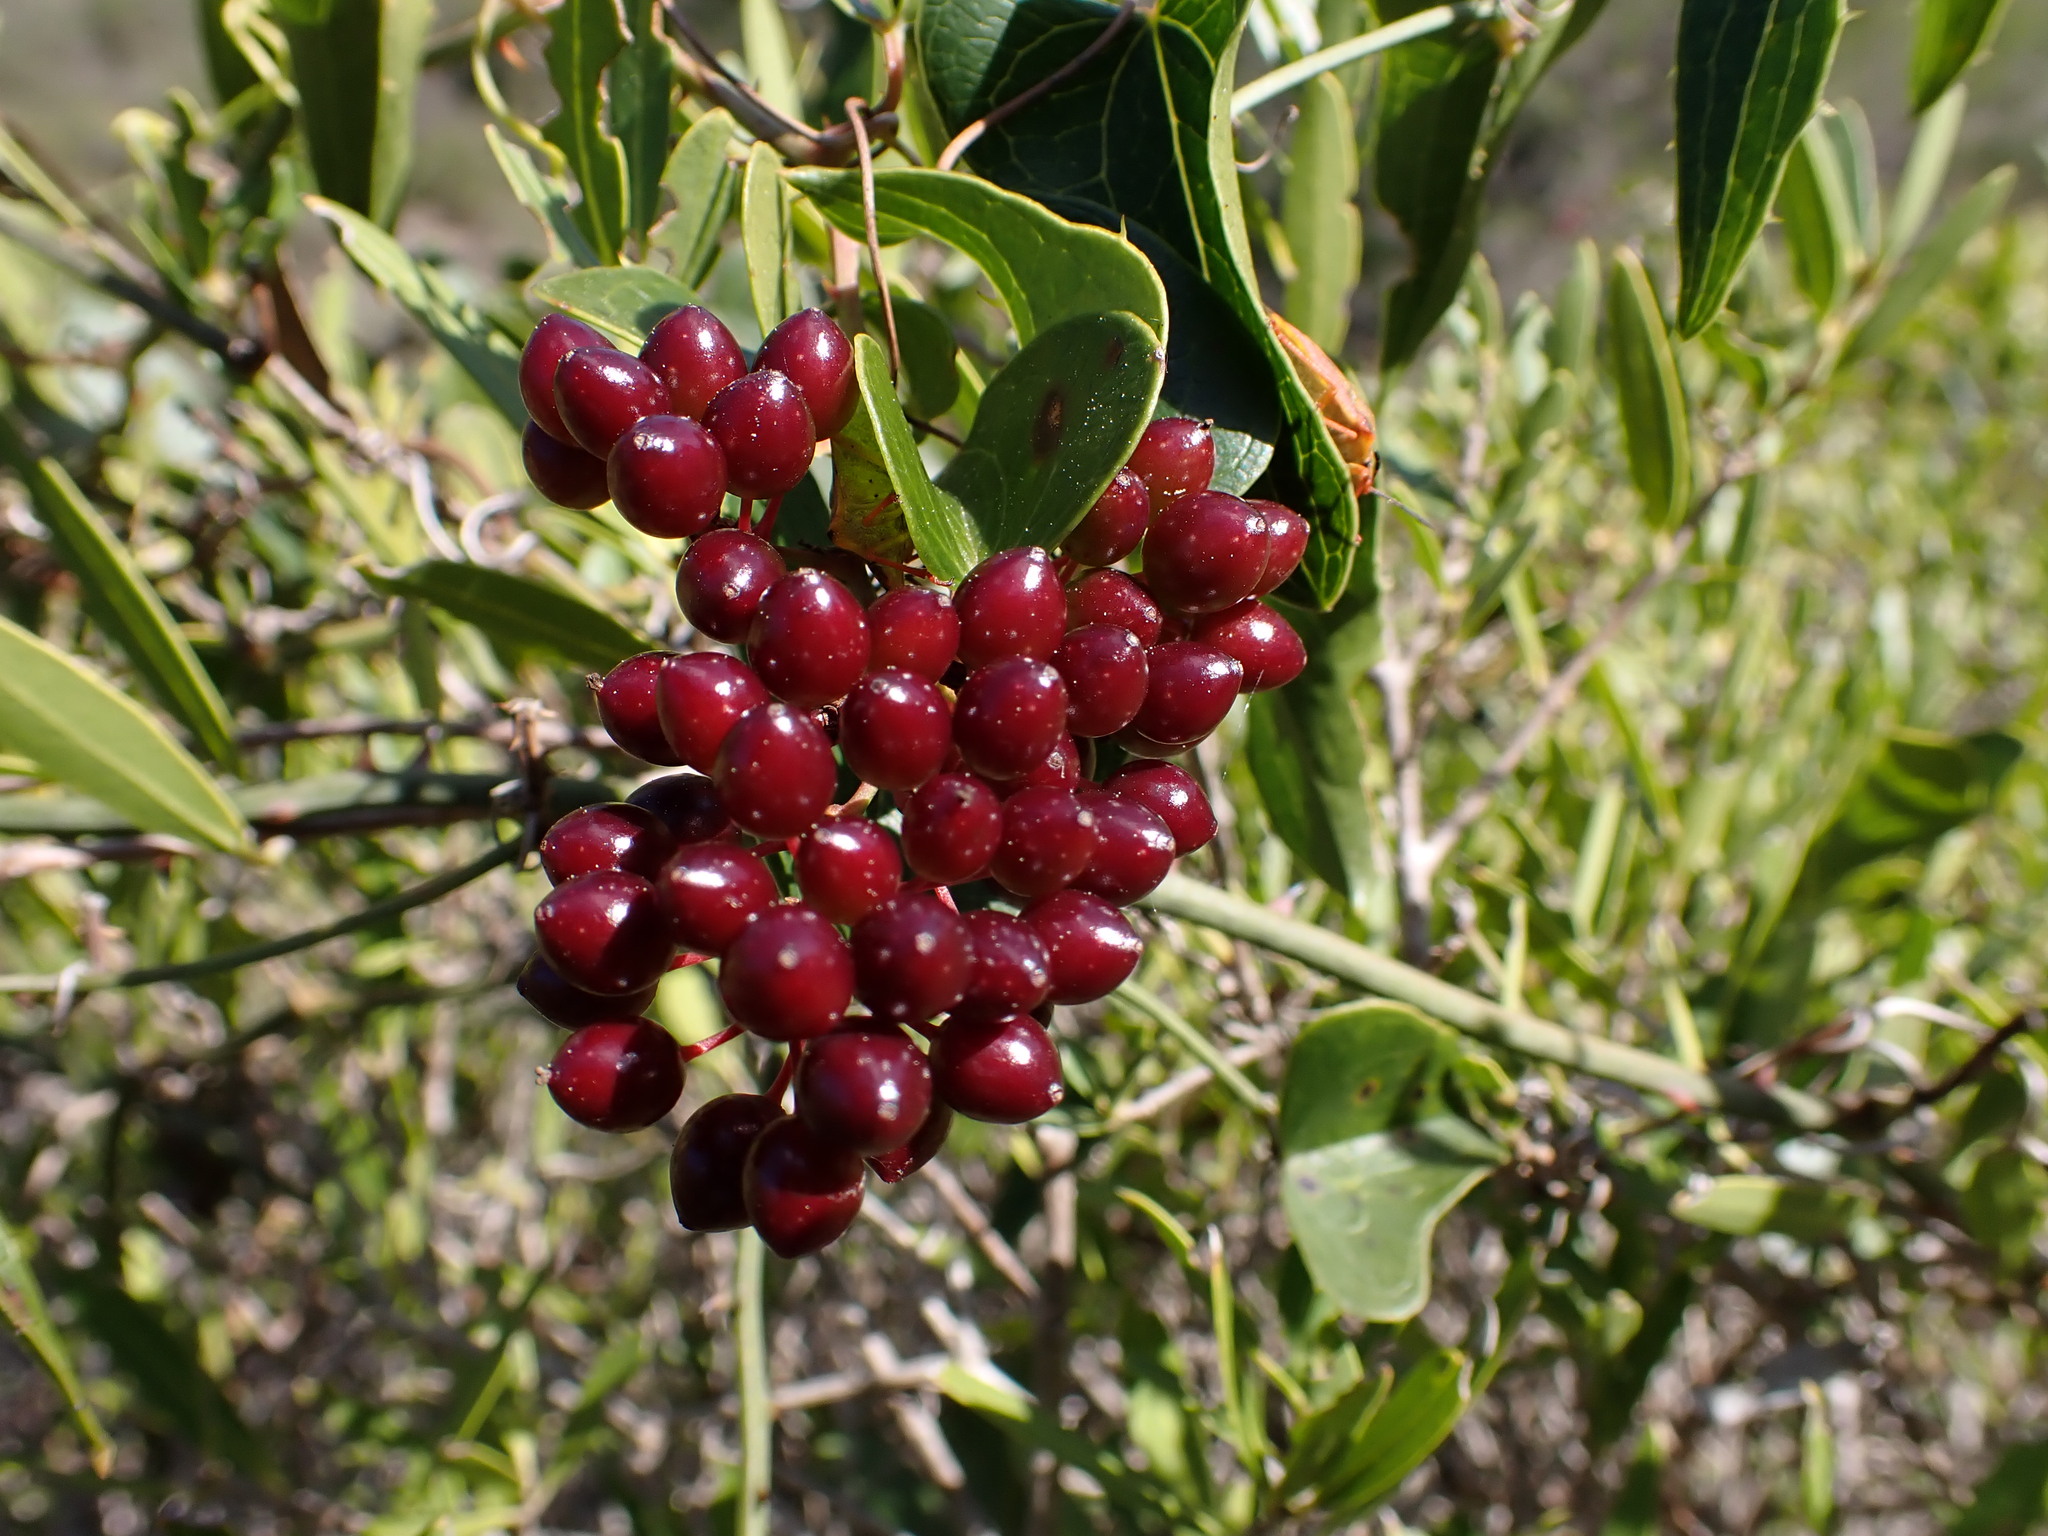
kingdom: Plantae
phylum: Tracheophyta
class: Liliopsida
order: Liliales
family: Smilacaceae
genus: Smilax
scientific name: Smilax aspera
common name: Common smilax
